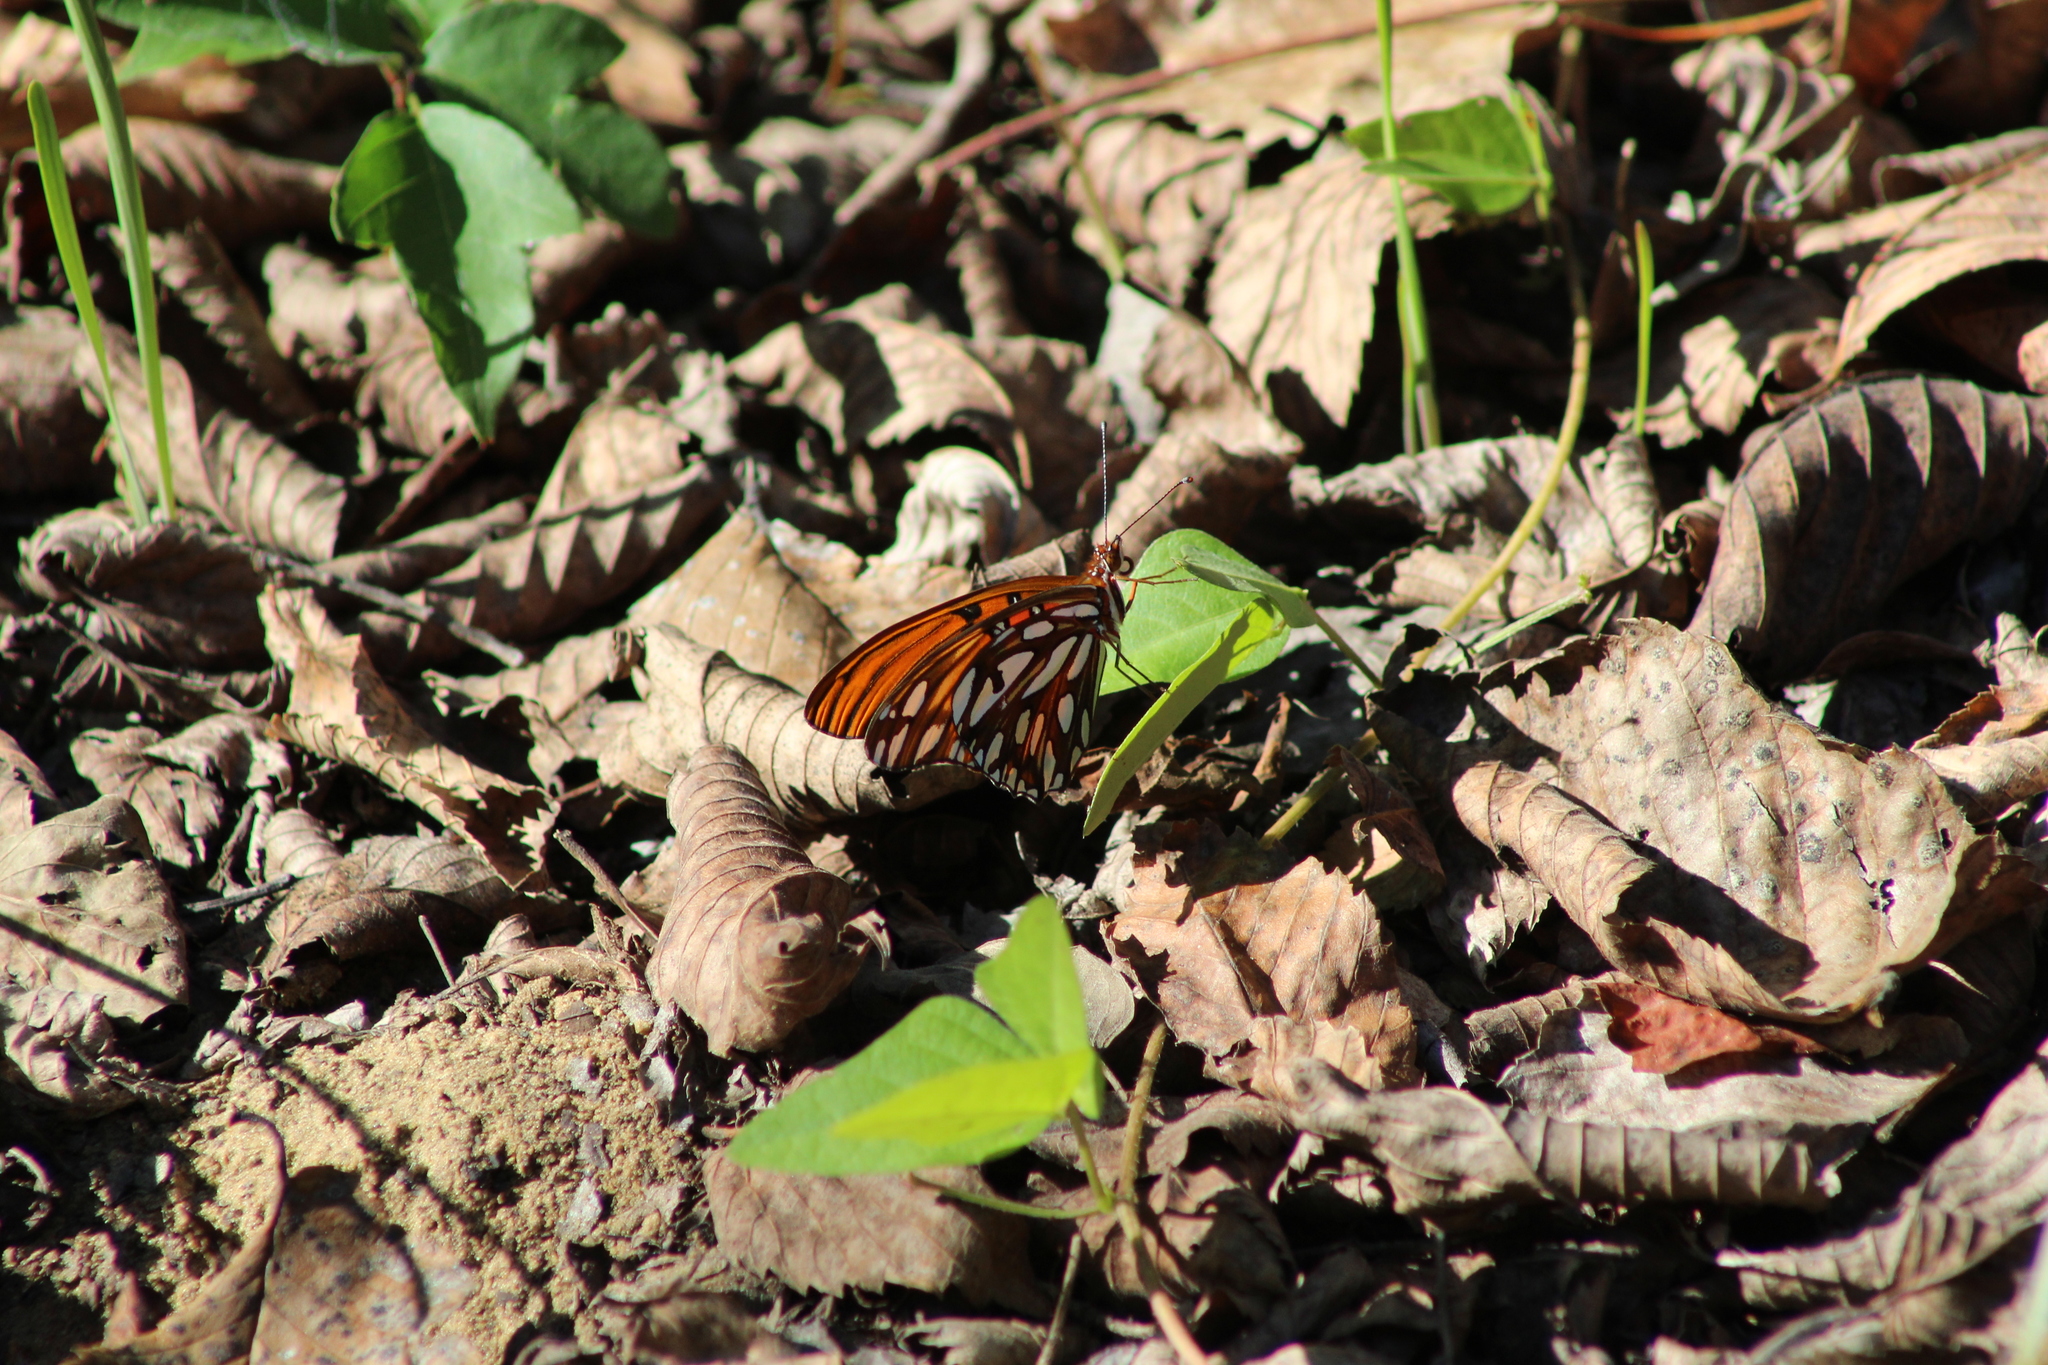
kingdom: Animalia
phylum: Arthropoda
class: Insecta
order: Lepidoptera
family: Nymphalidae
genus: Dione
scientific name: Dione vanillae
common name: Gulf fritillary
